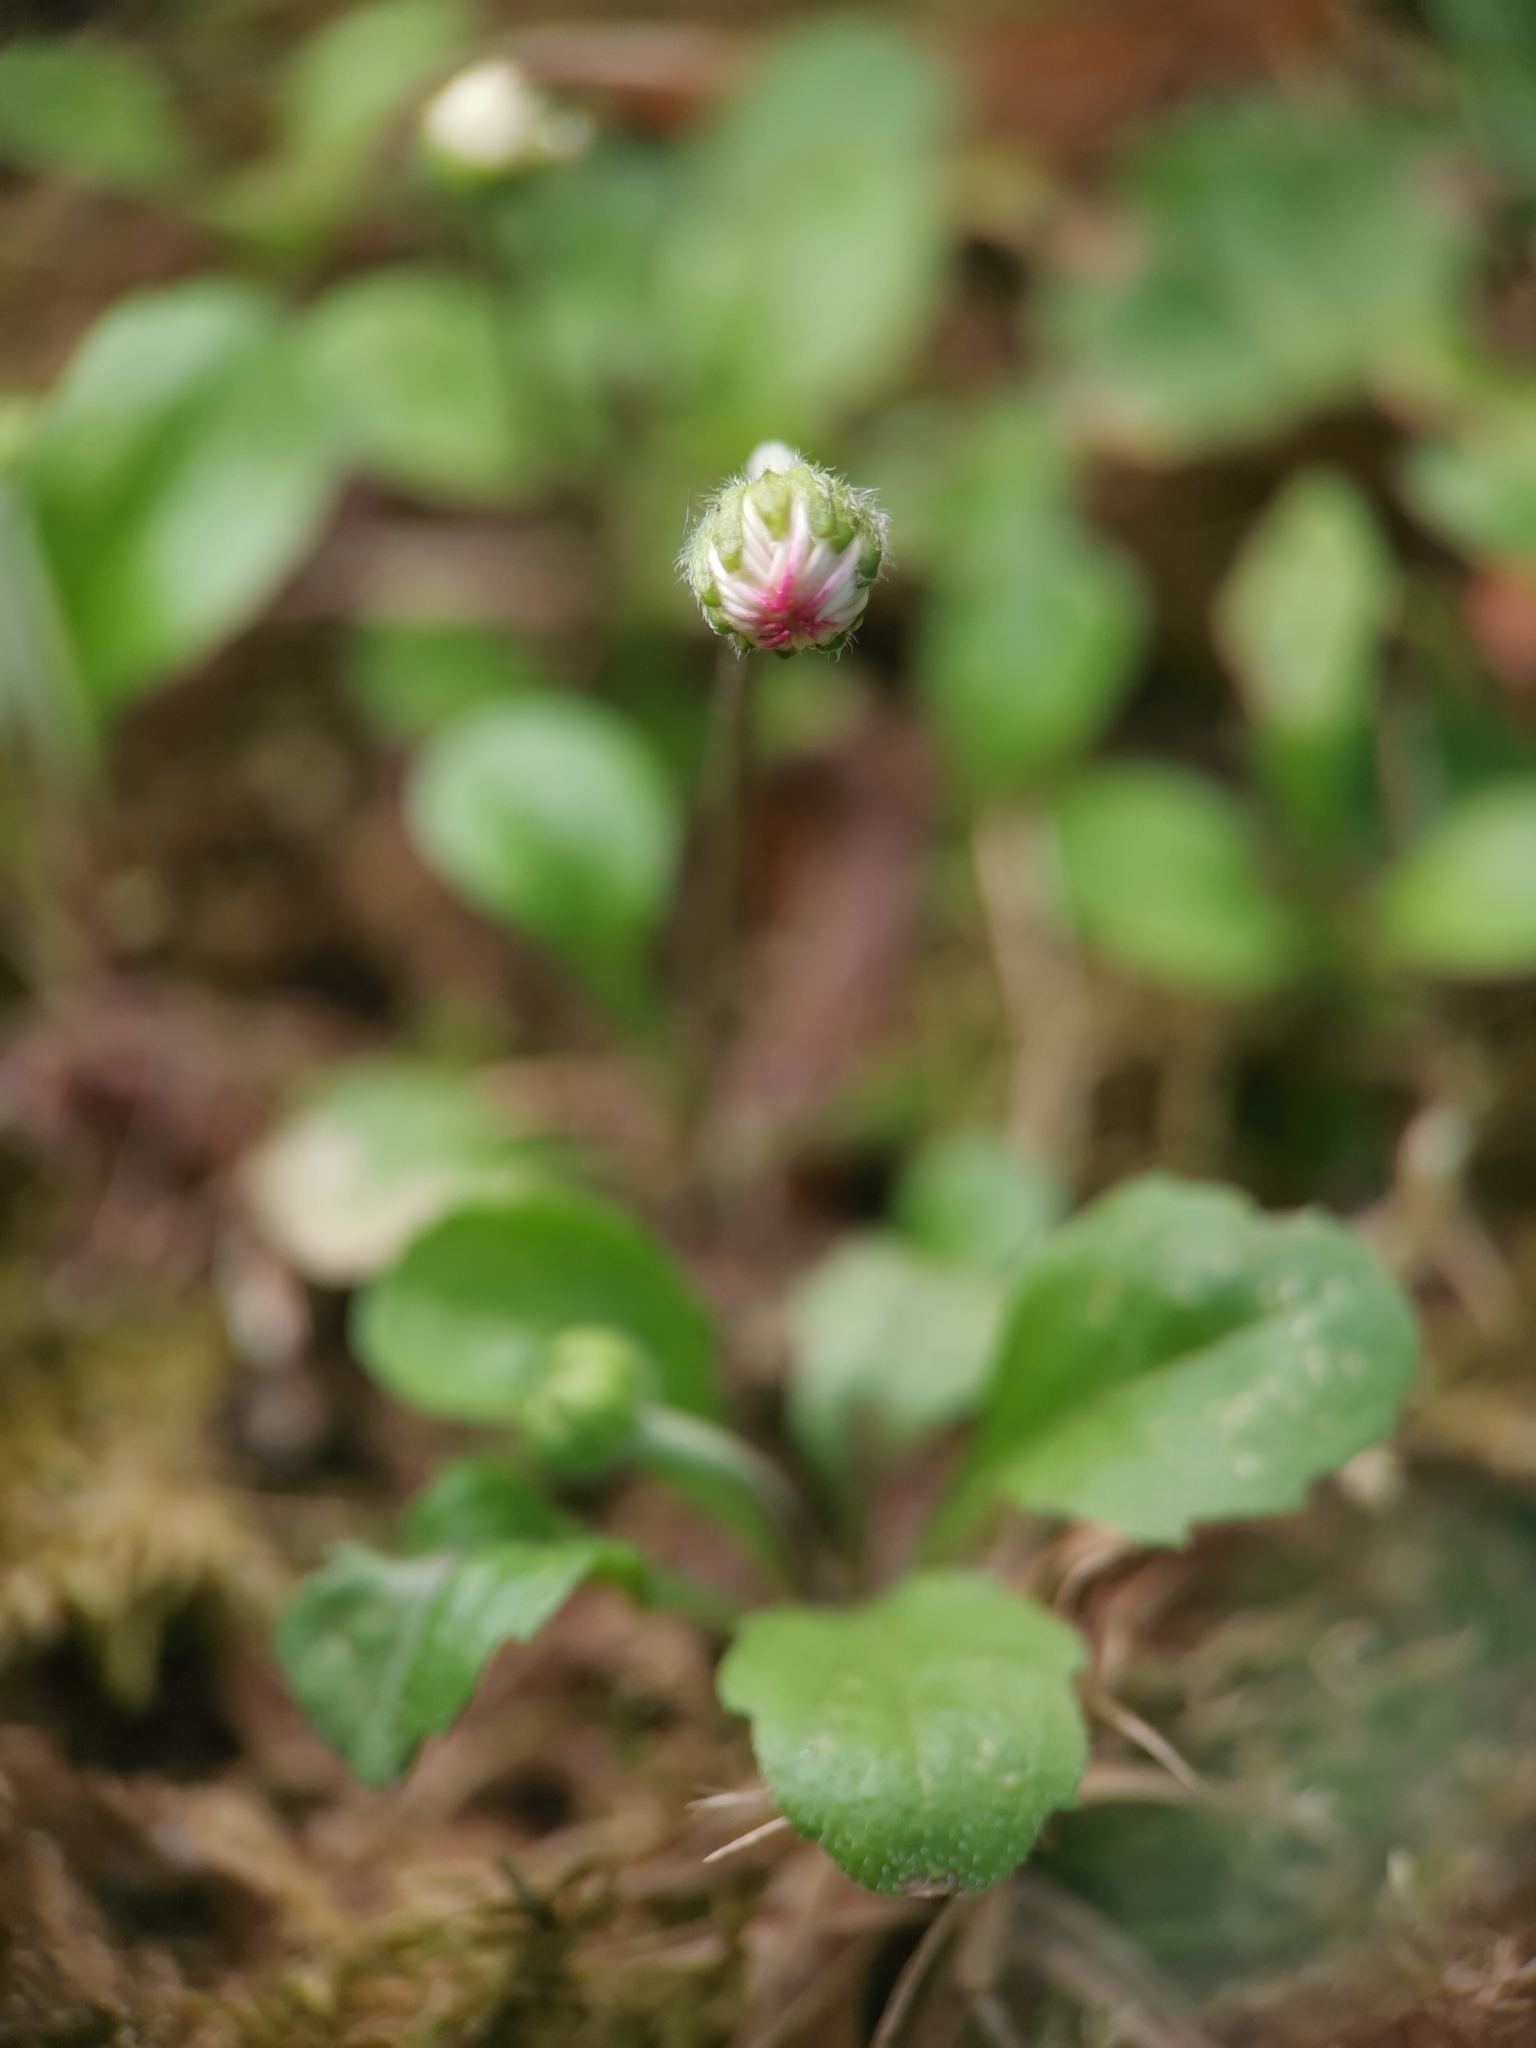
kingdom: Plantae
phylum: Tracheophyta
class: Magnoliopsida
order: Asterales
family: Asteraceae
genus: Bellis
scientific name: Bellis perennis
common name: Lawndaisy
